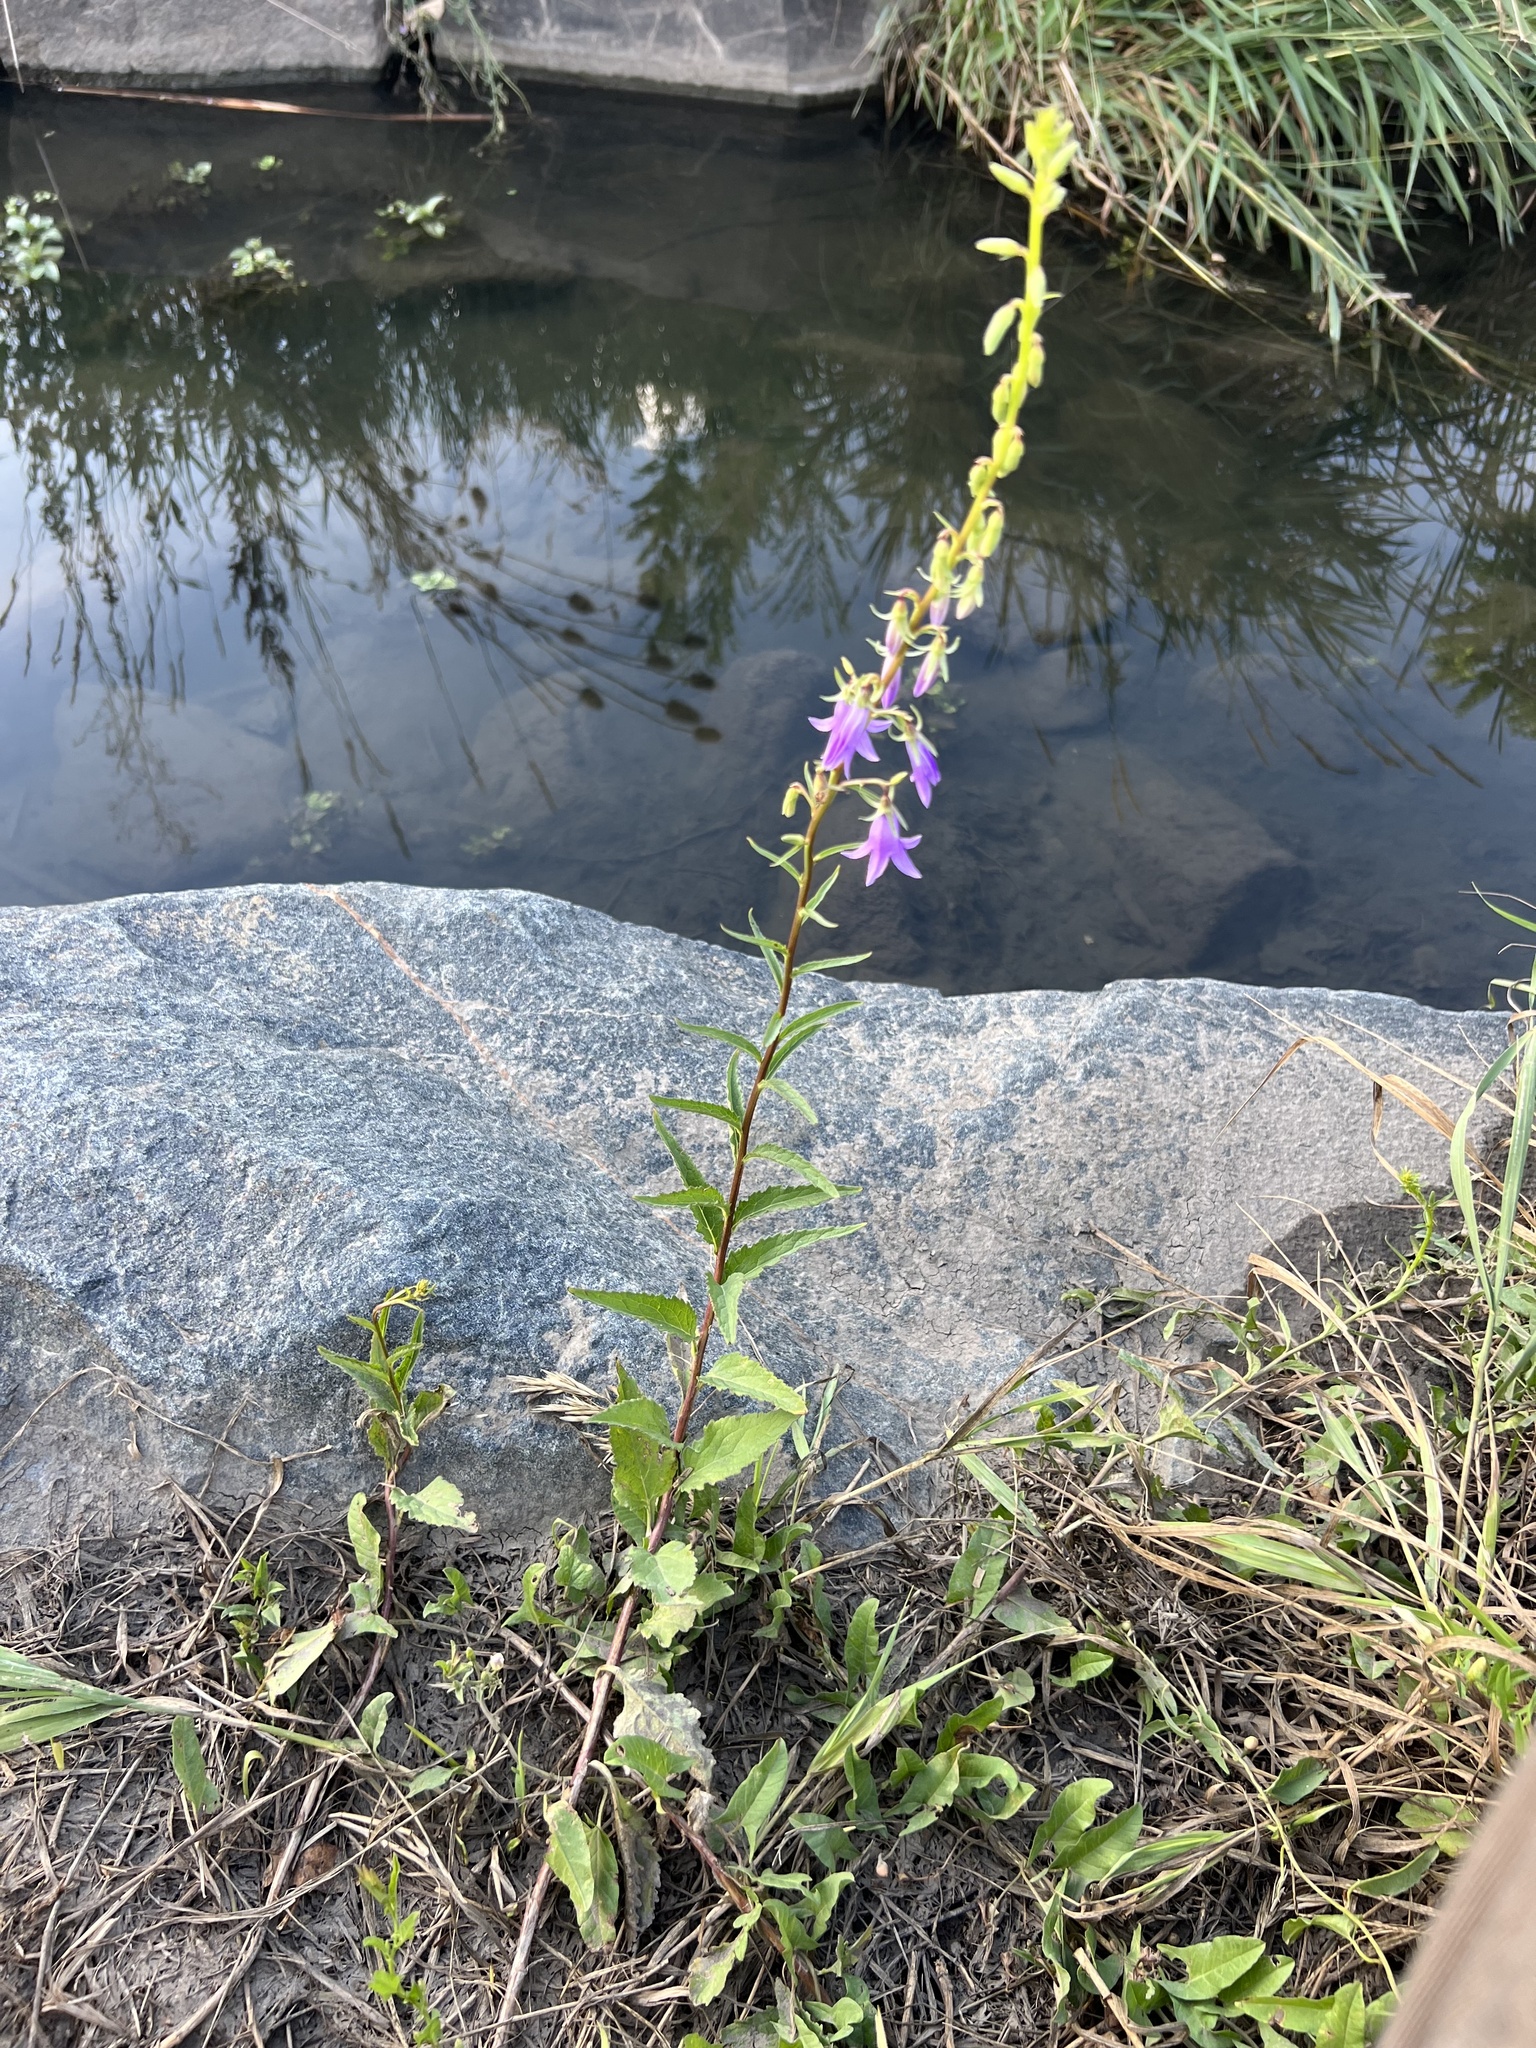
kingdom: Plantae
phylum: Tracheophyta
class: Magnoliopsida
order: Asterales
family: Campanulaceae
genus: Campanula
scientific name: Campanula rapunculoides
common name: Creeping bellflower
